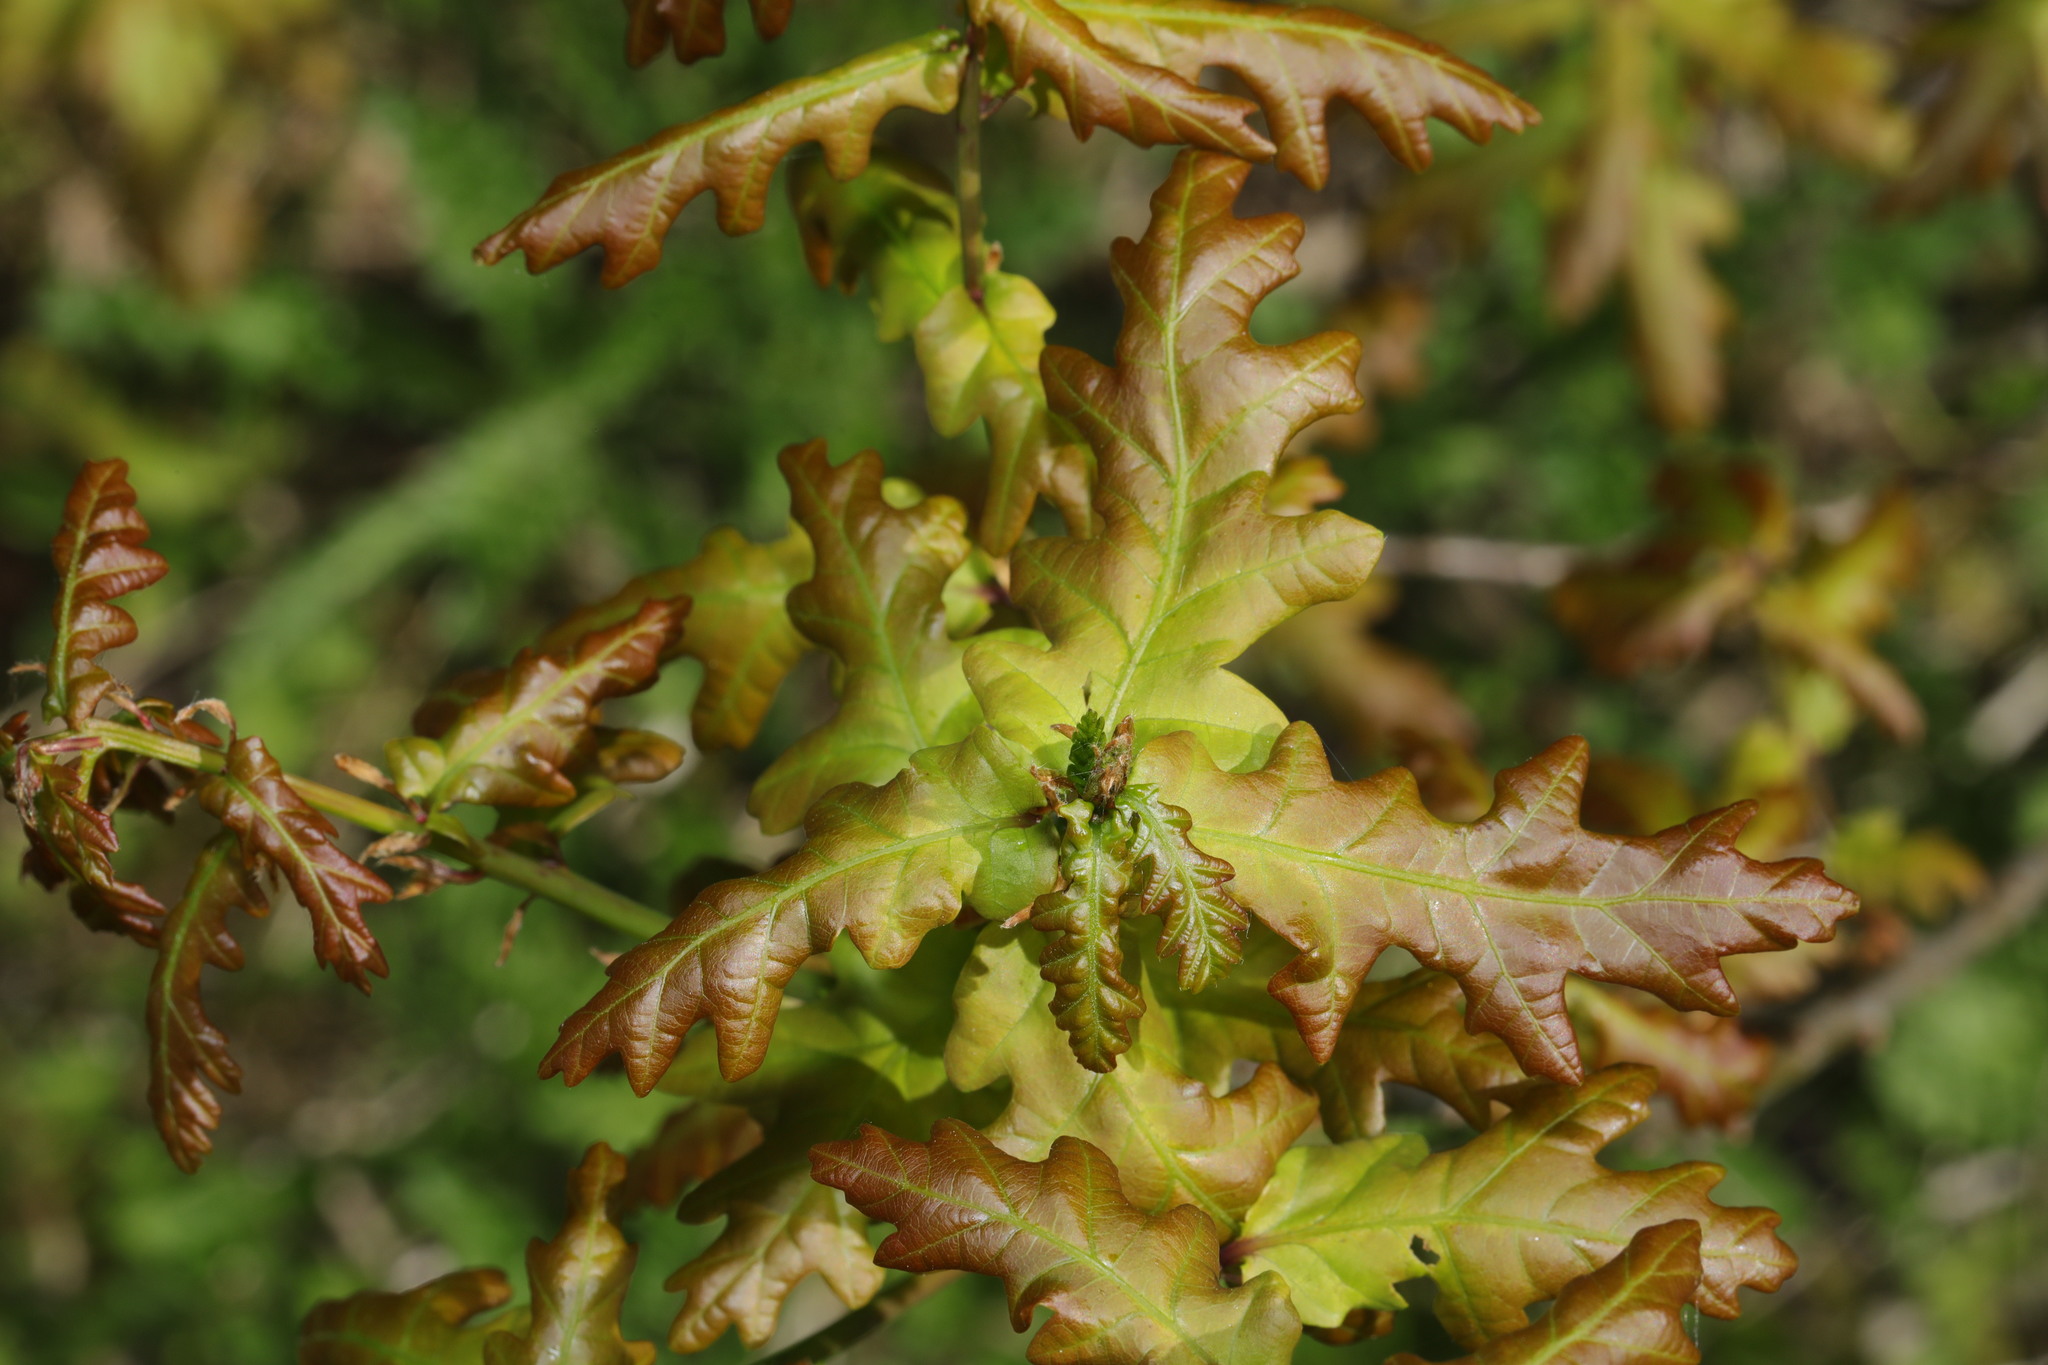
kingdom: Plantae
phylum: Tracheophyta
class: Magnoliopsida
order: Fagales
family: Fagaceae
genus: Quercus
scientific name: Quercus robur
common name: Pedunculate oak
